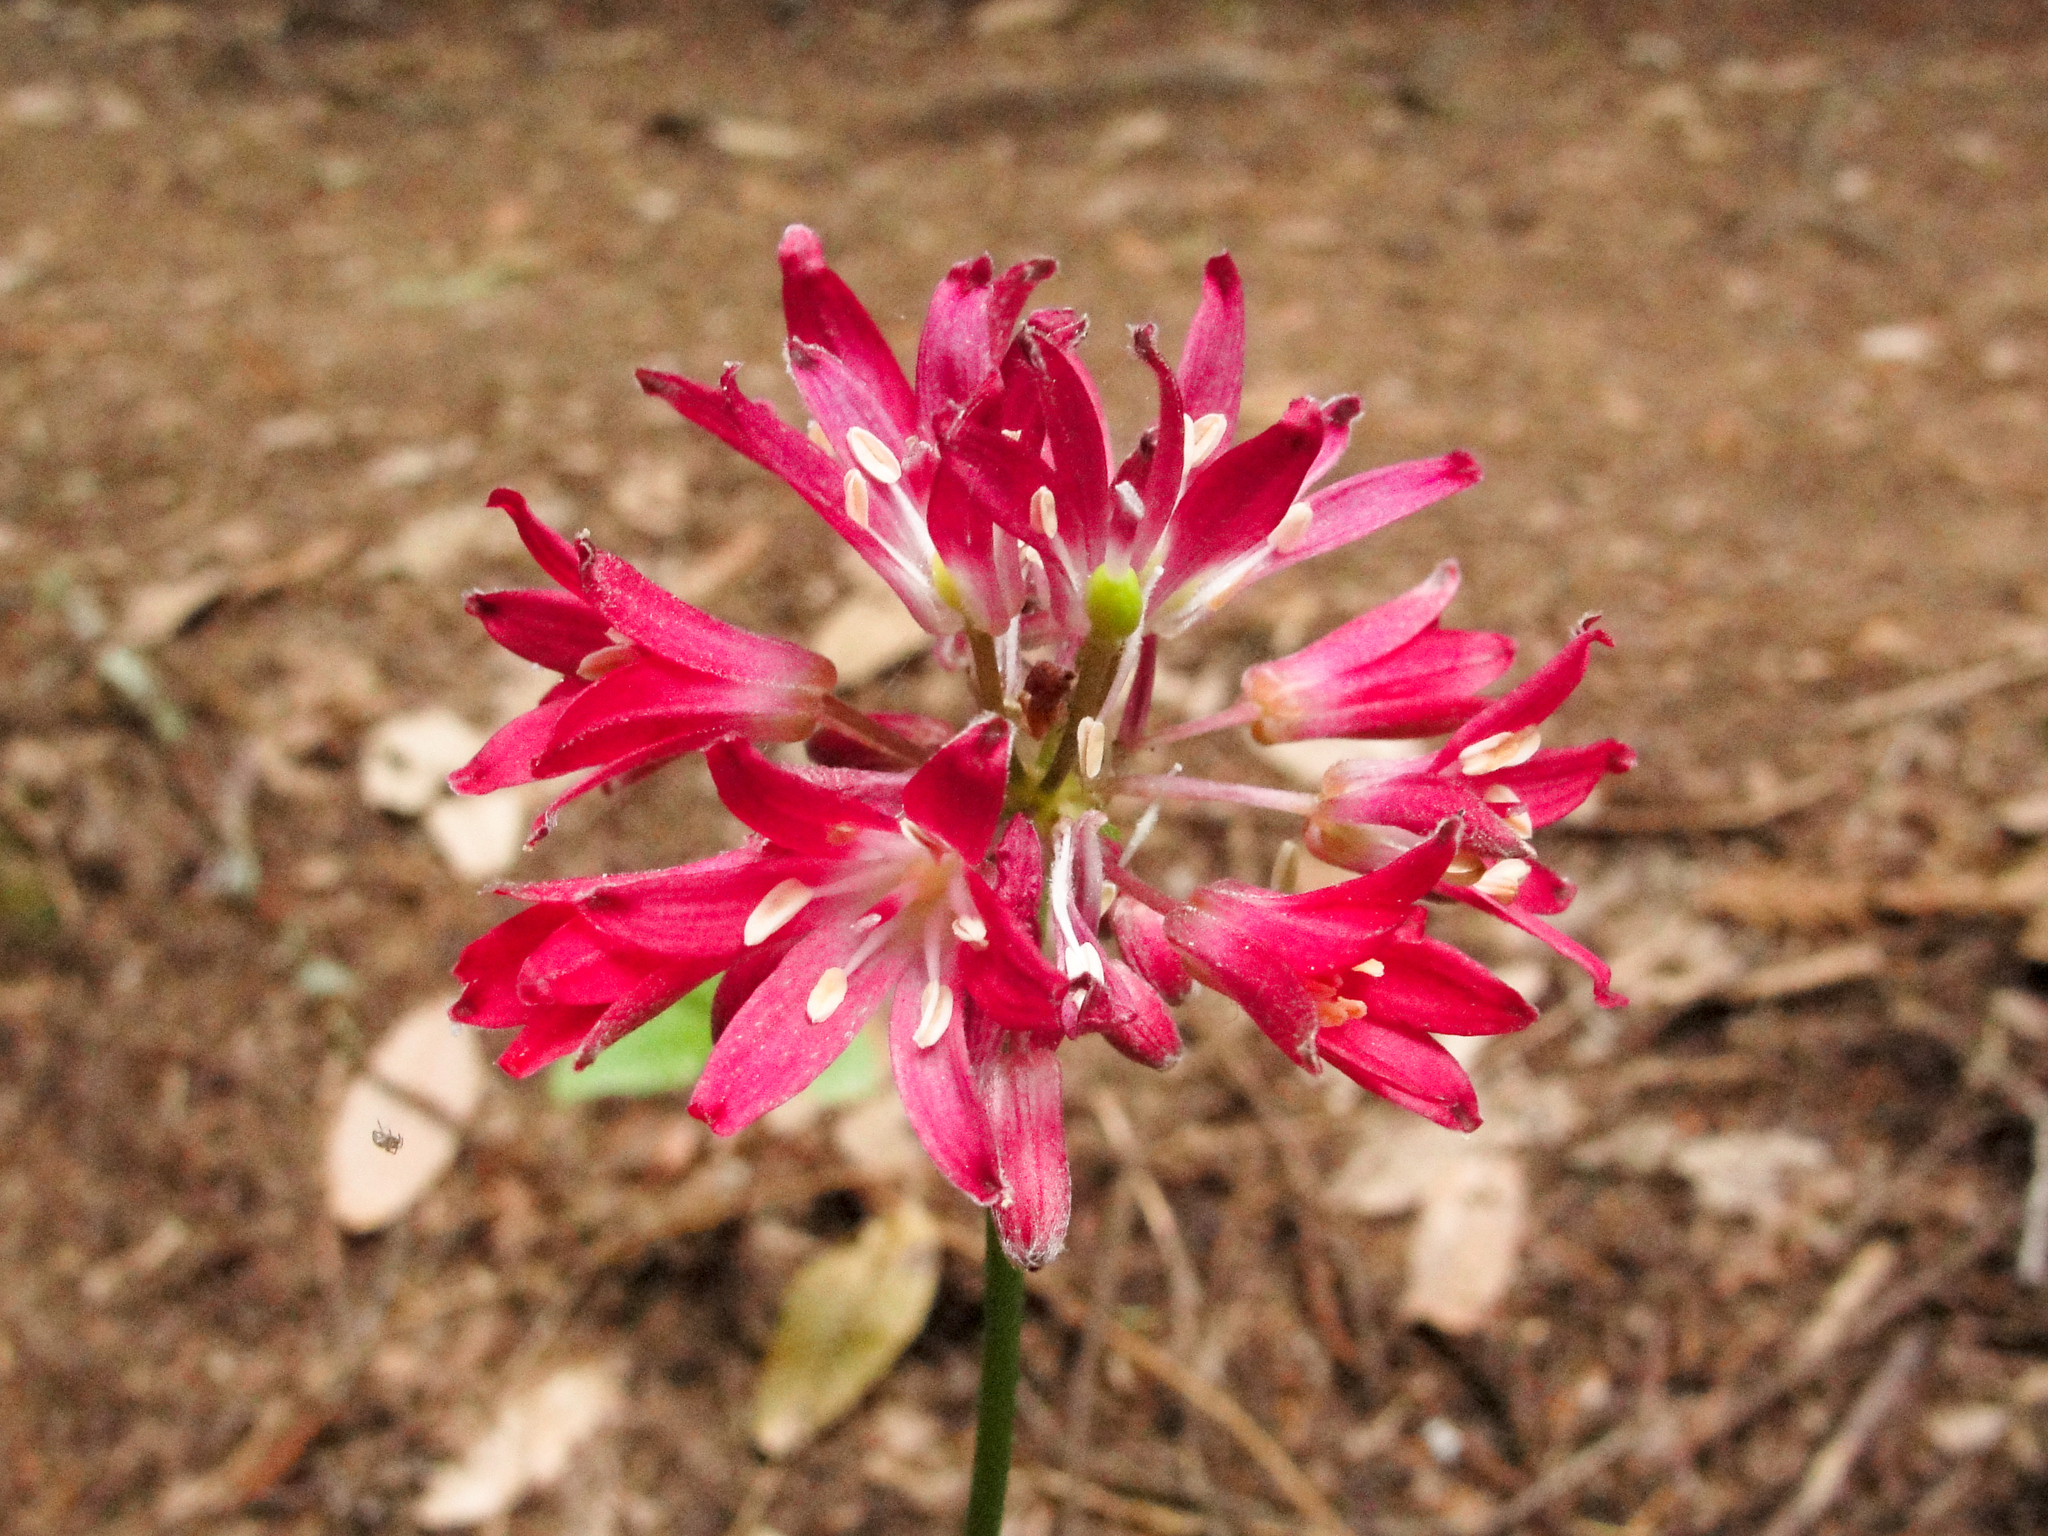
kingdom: Plantae
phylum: Tracheophyta
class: Liliopsida
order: Liliales
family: Liliaceae
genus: Clintonia
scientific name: Clintonia andrewsiana
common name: Red clintonia
